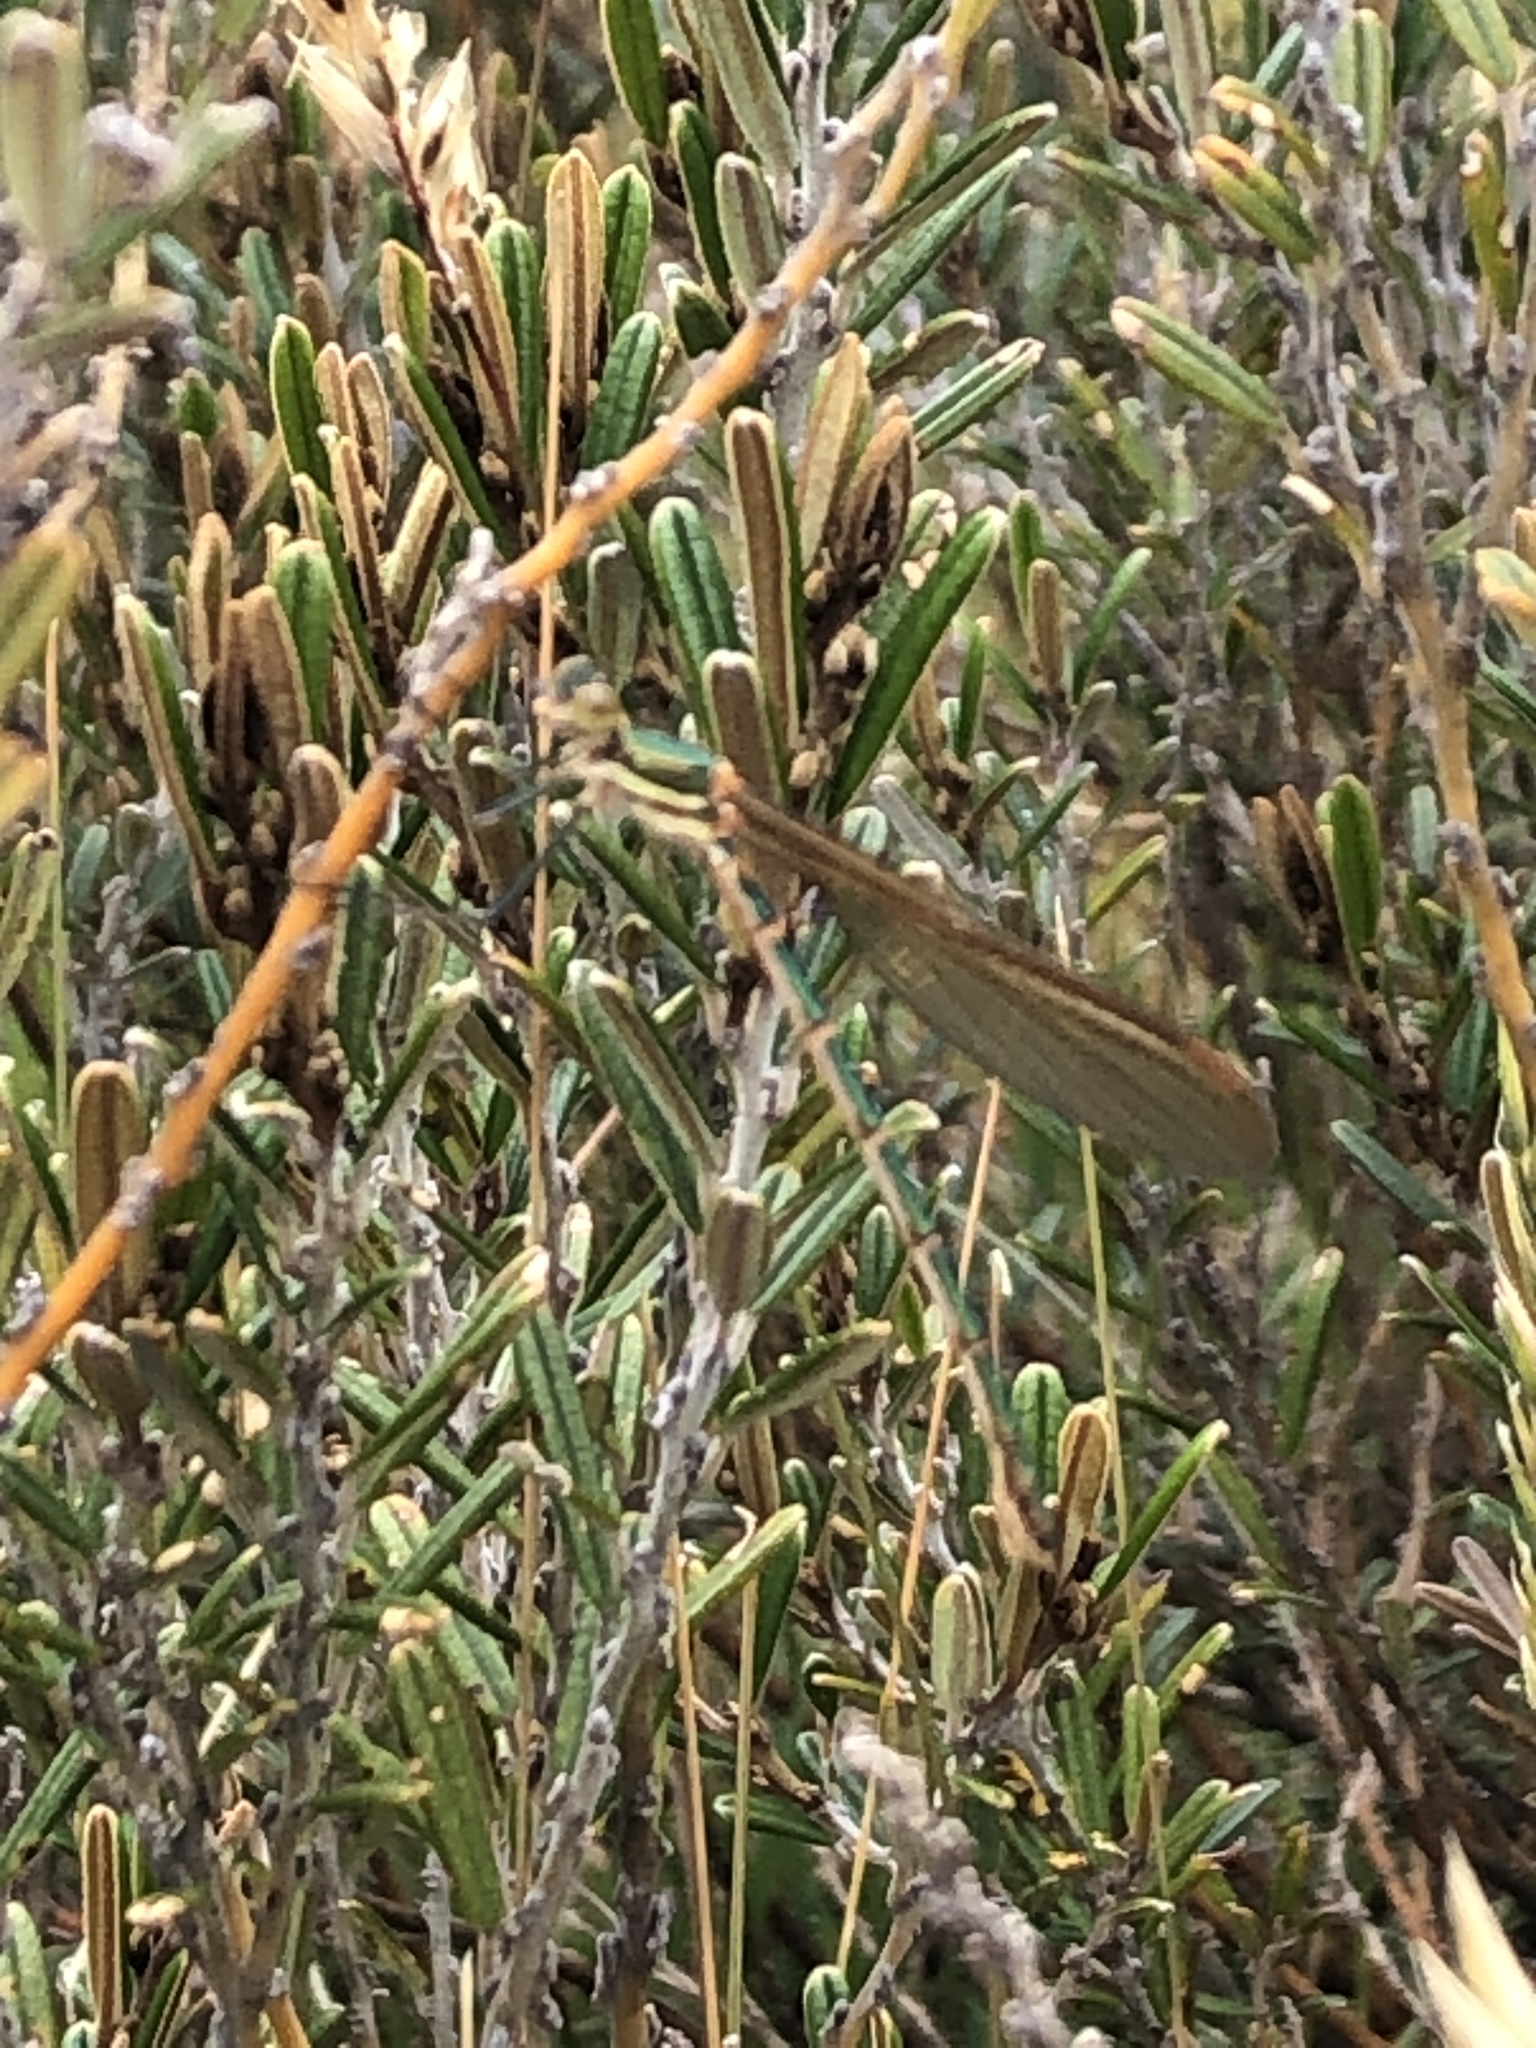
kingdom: Animalia
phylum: Arthropoda
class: Insecta
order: Odonata
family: Lestidae
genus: Austrolestes
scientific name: Austrolestes cingulatus
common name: Metallic ringtail
